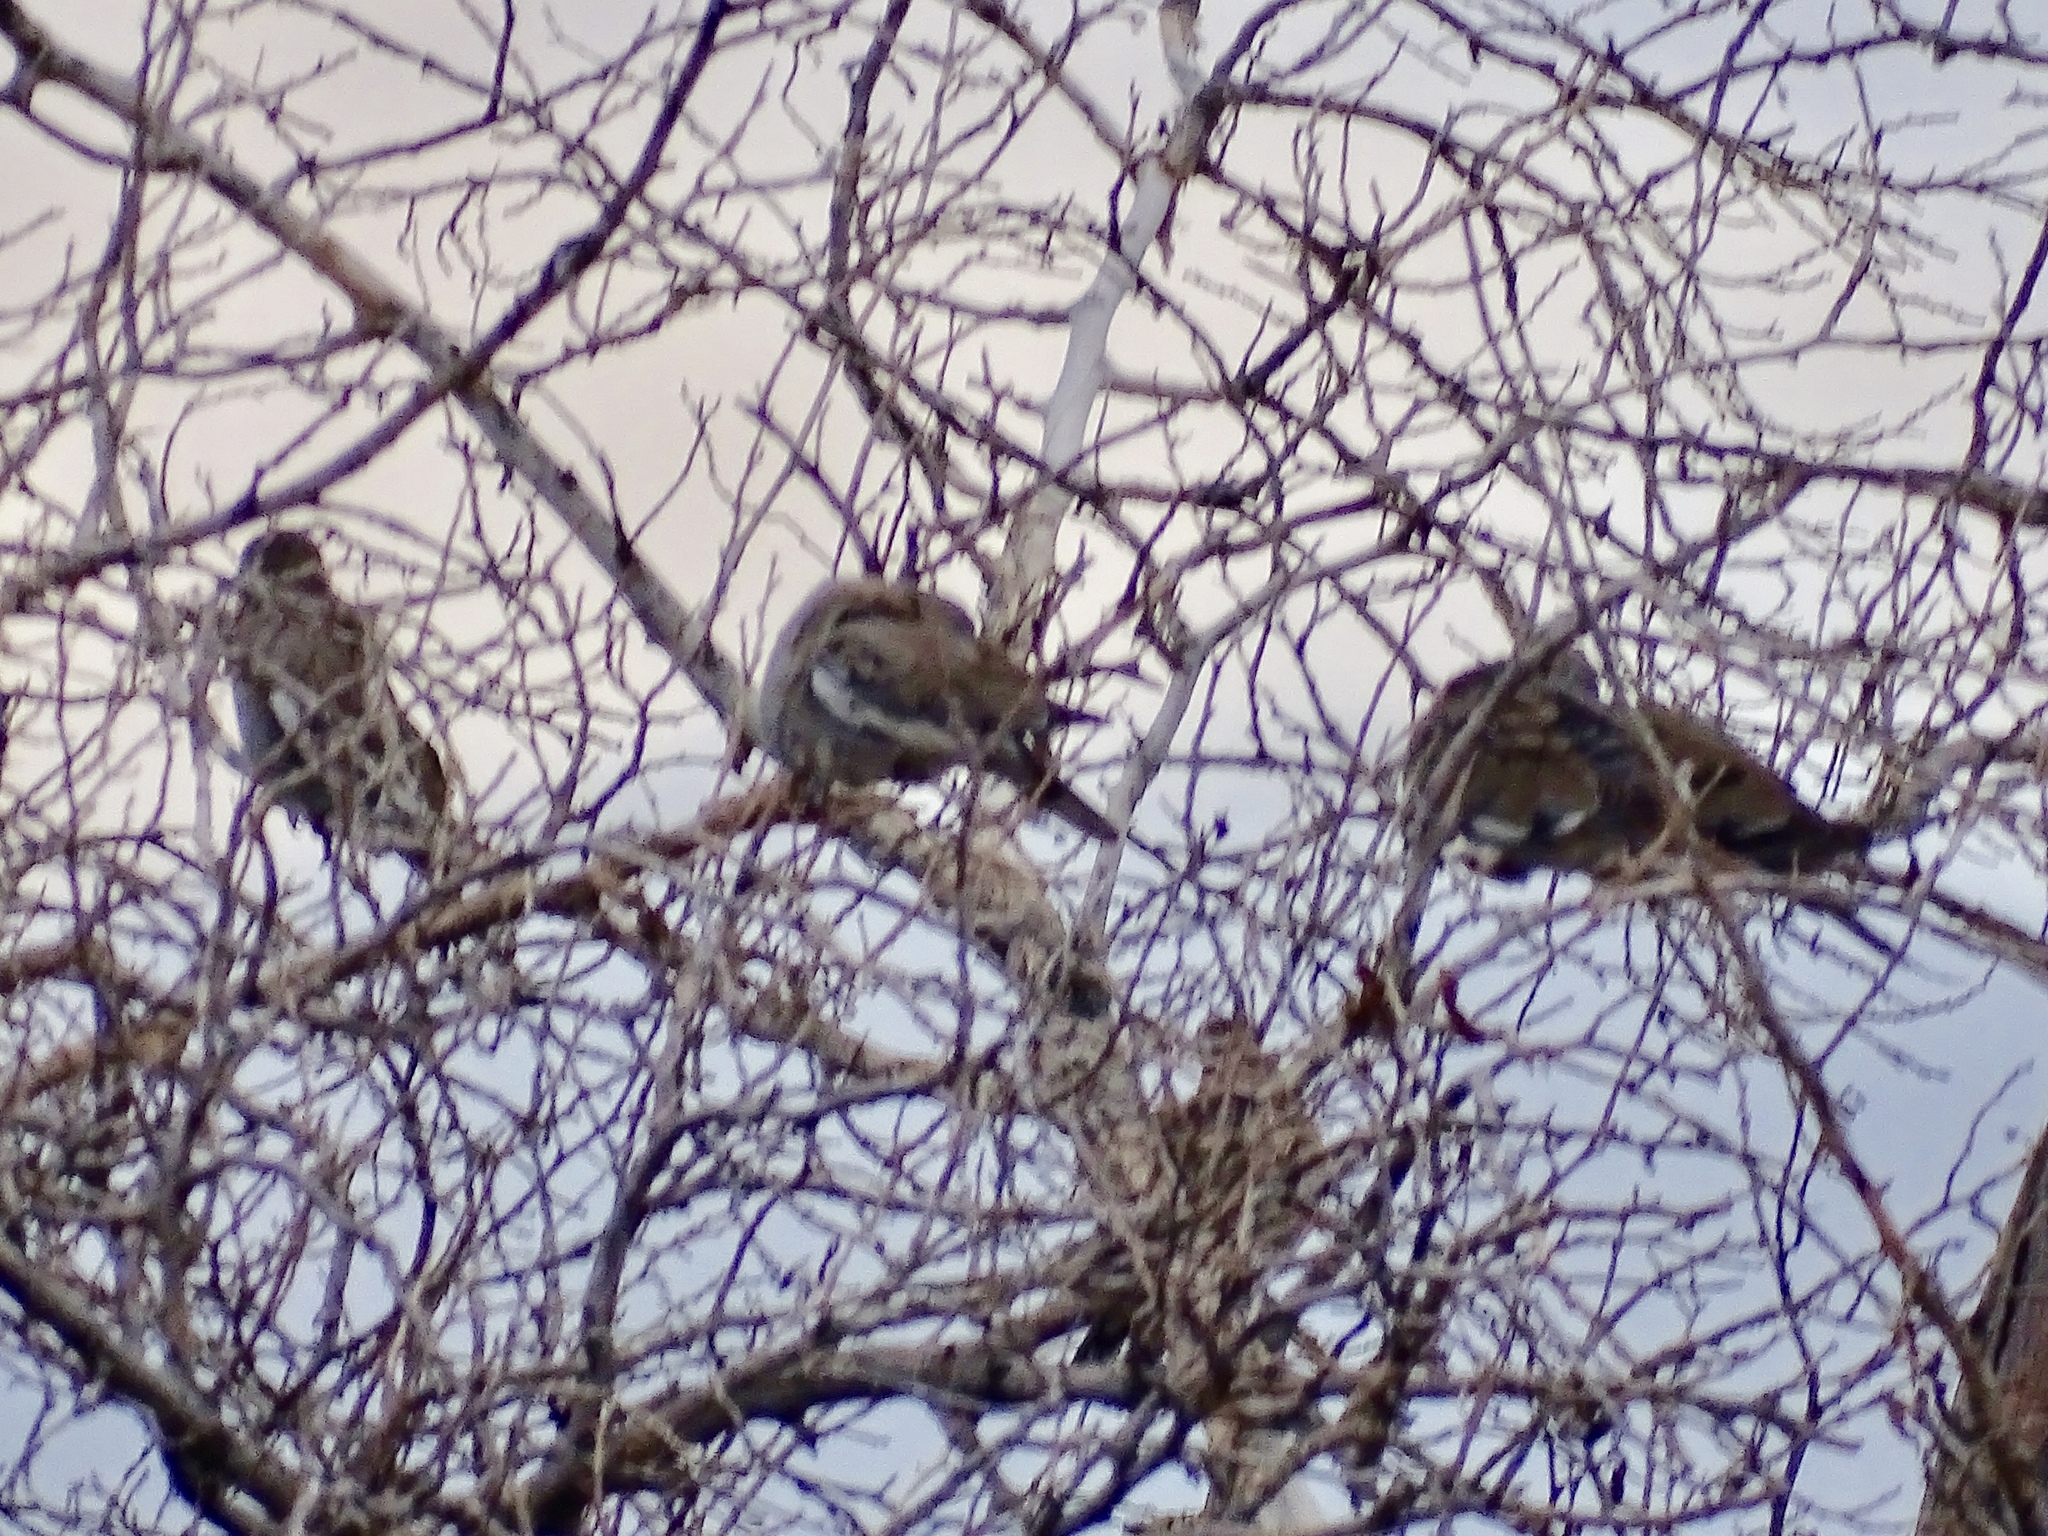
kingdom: Animalia
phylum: Chordata
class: Aves
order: Columbiformes
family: Columbidae
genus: Zenaida
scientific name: Zenaida asiatica
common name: White-winged dove
